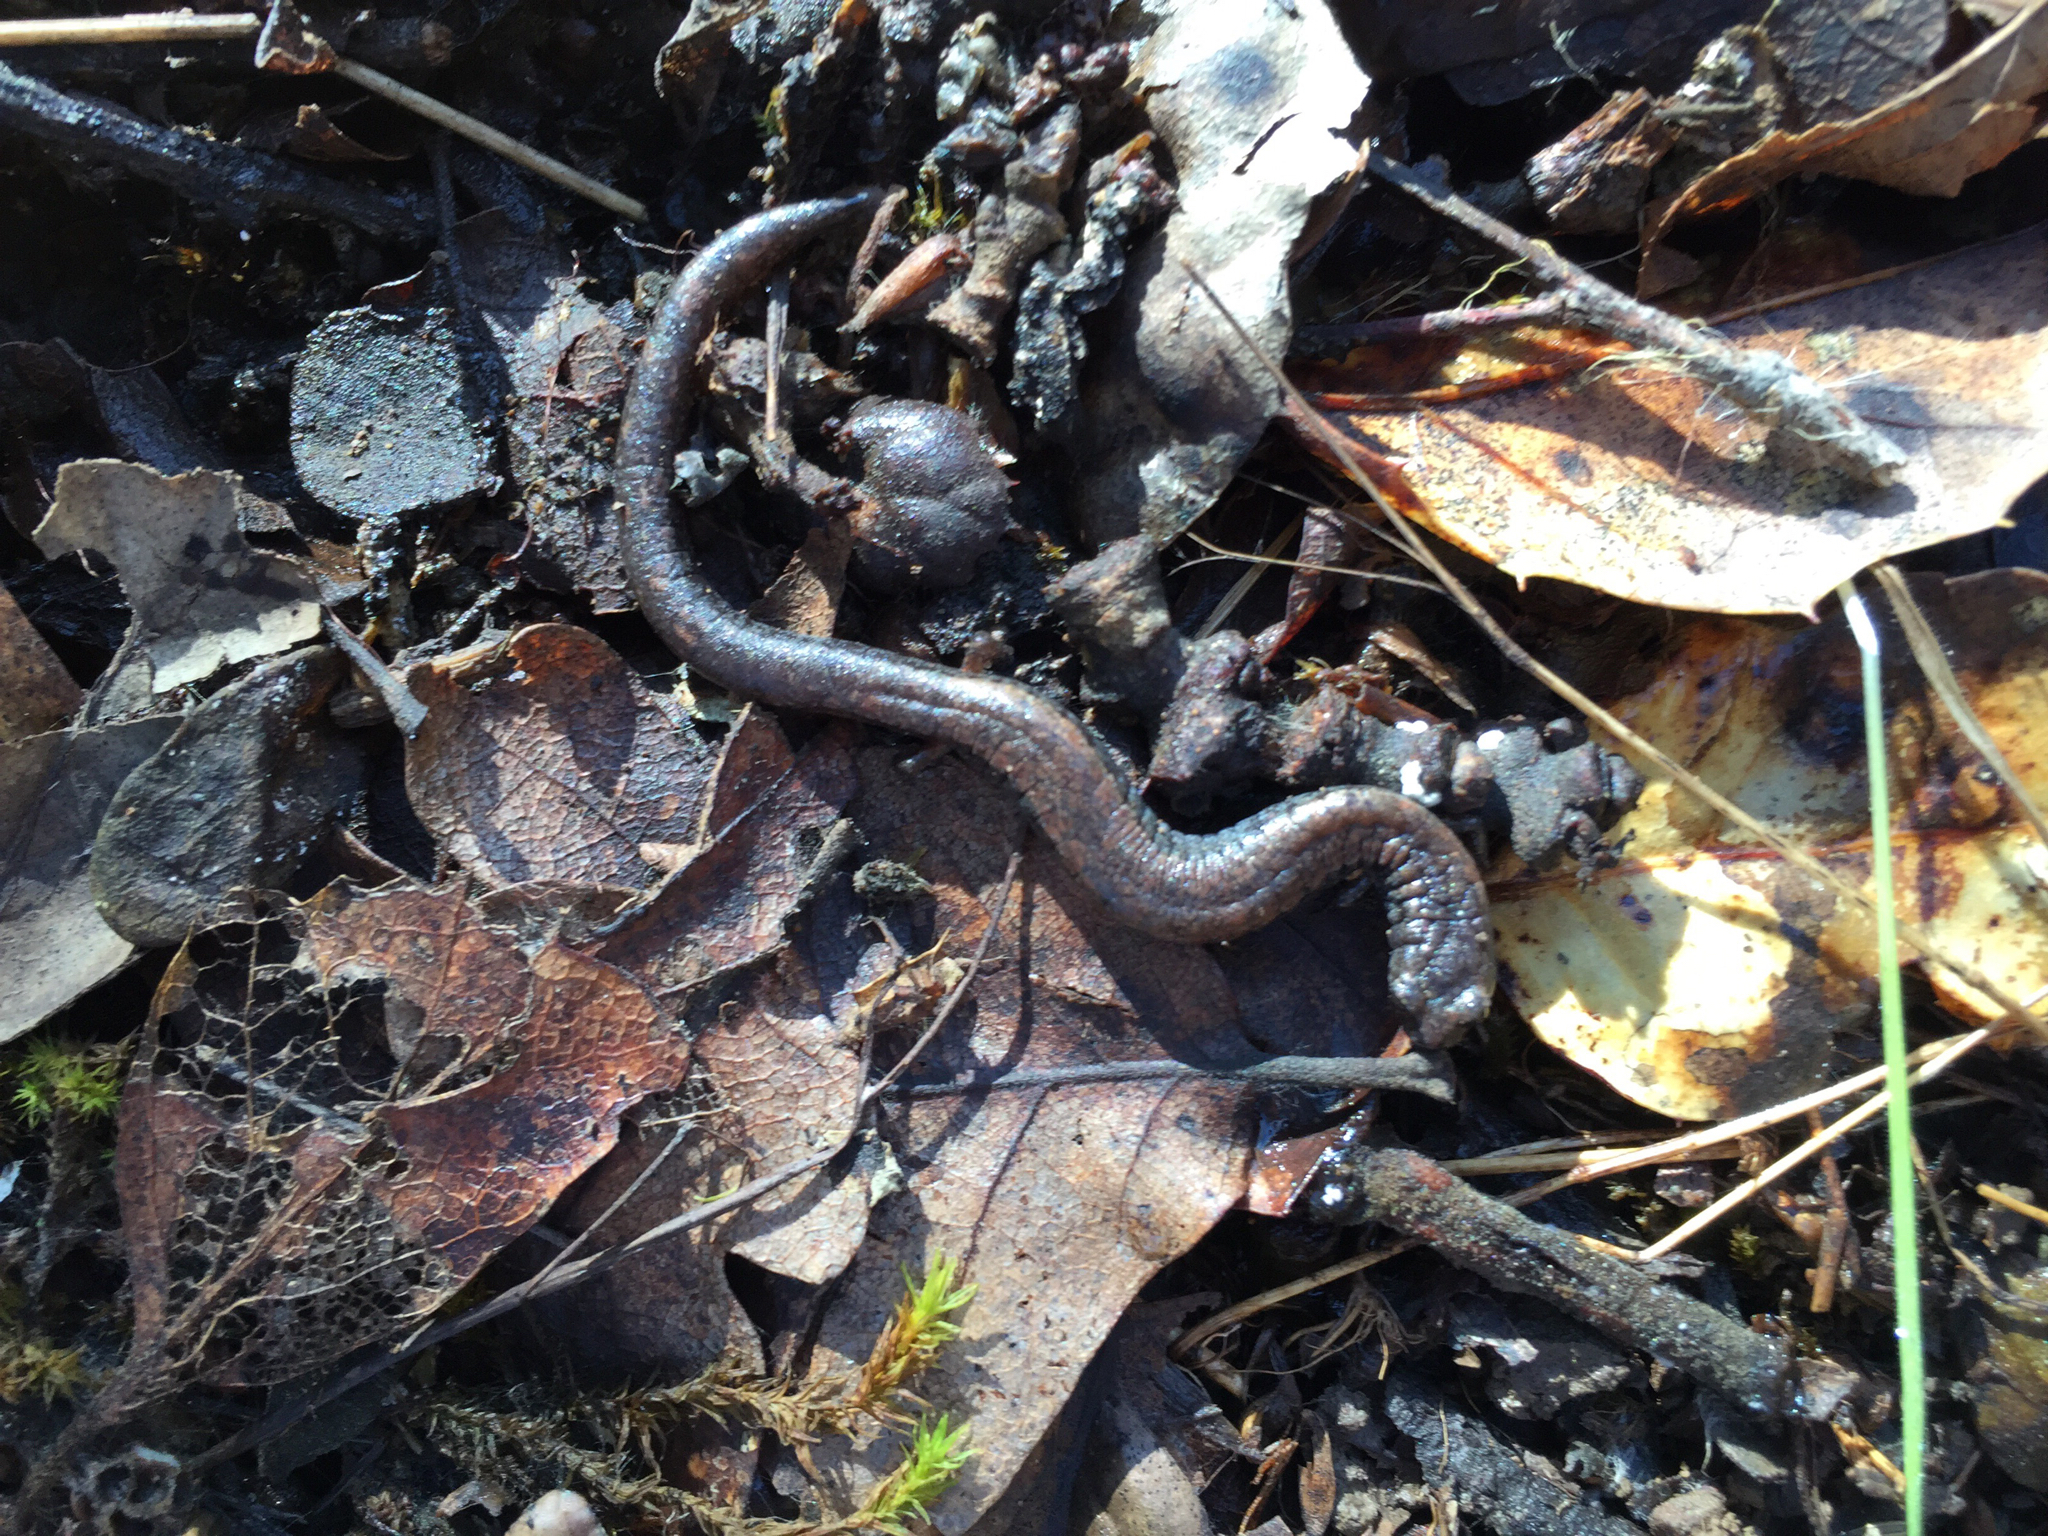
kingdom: Animalia
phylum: Chordata
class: Amphibia
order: Caudata
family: Plethodontidae
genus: Batrachoseps
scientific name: Batrachoseps attenuatus
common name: California slender salamander
